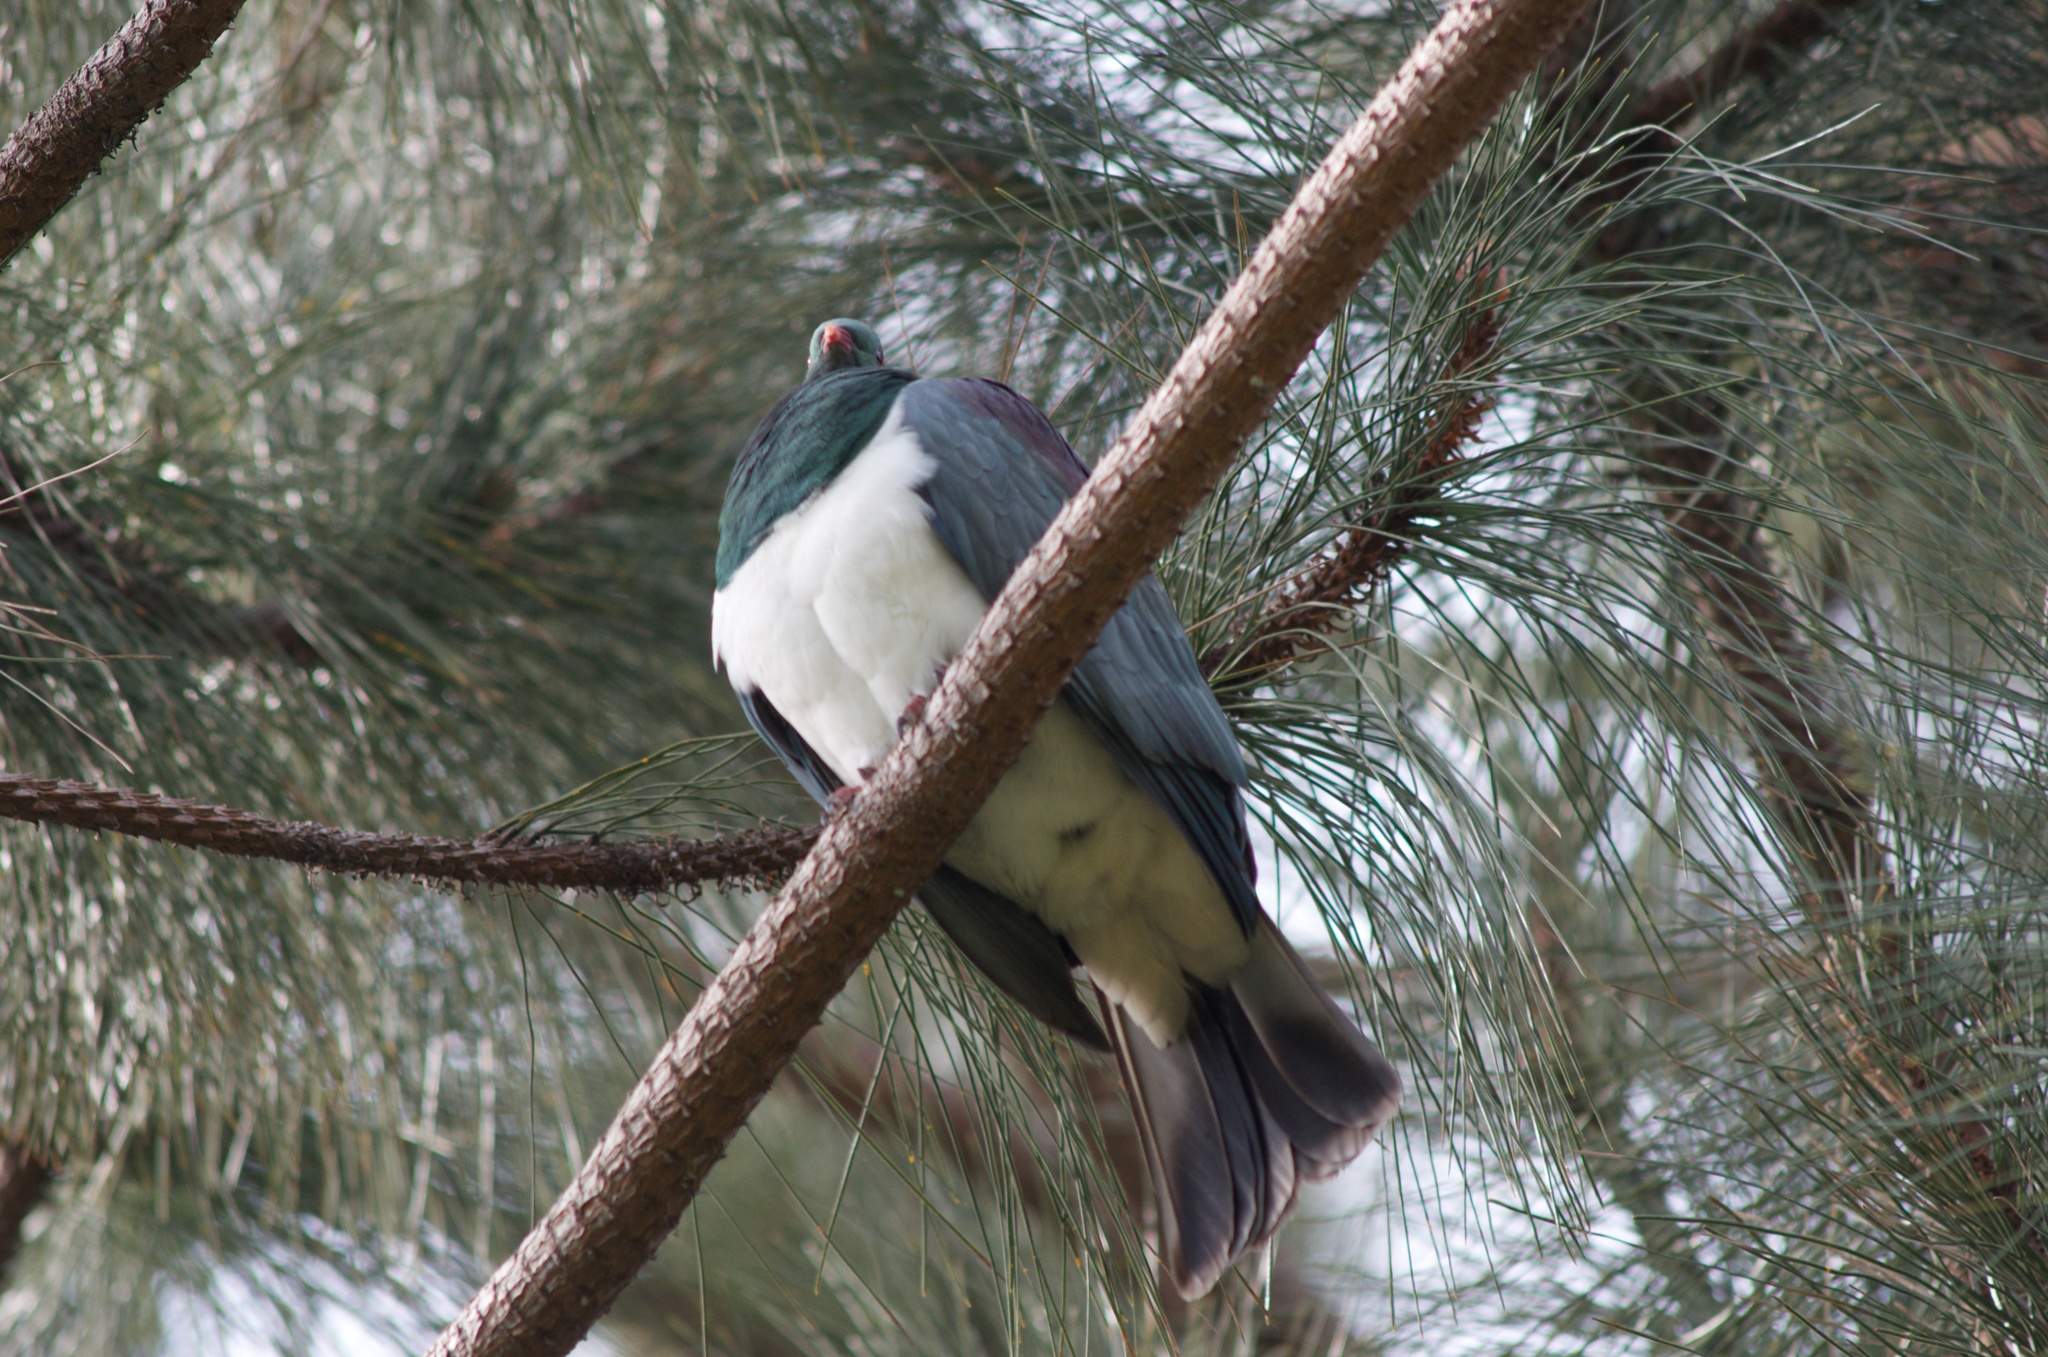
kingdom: Animalia
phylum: Chordata
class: Aves
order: Columbiformes
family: Columbidae
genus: Hemiphaga
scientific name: Hemiphaga novaeseelandiae
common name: New zealand pigeon
